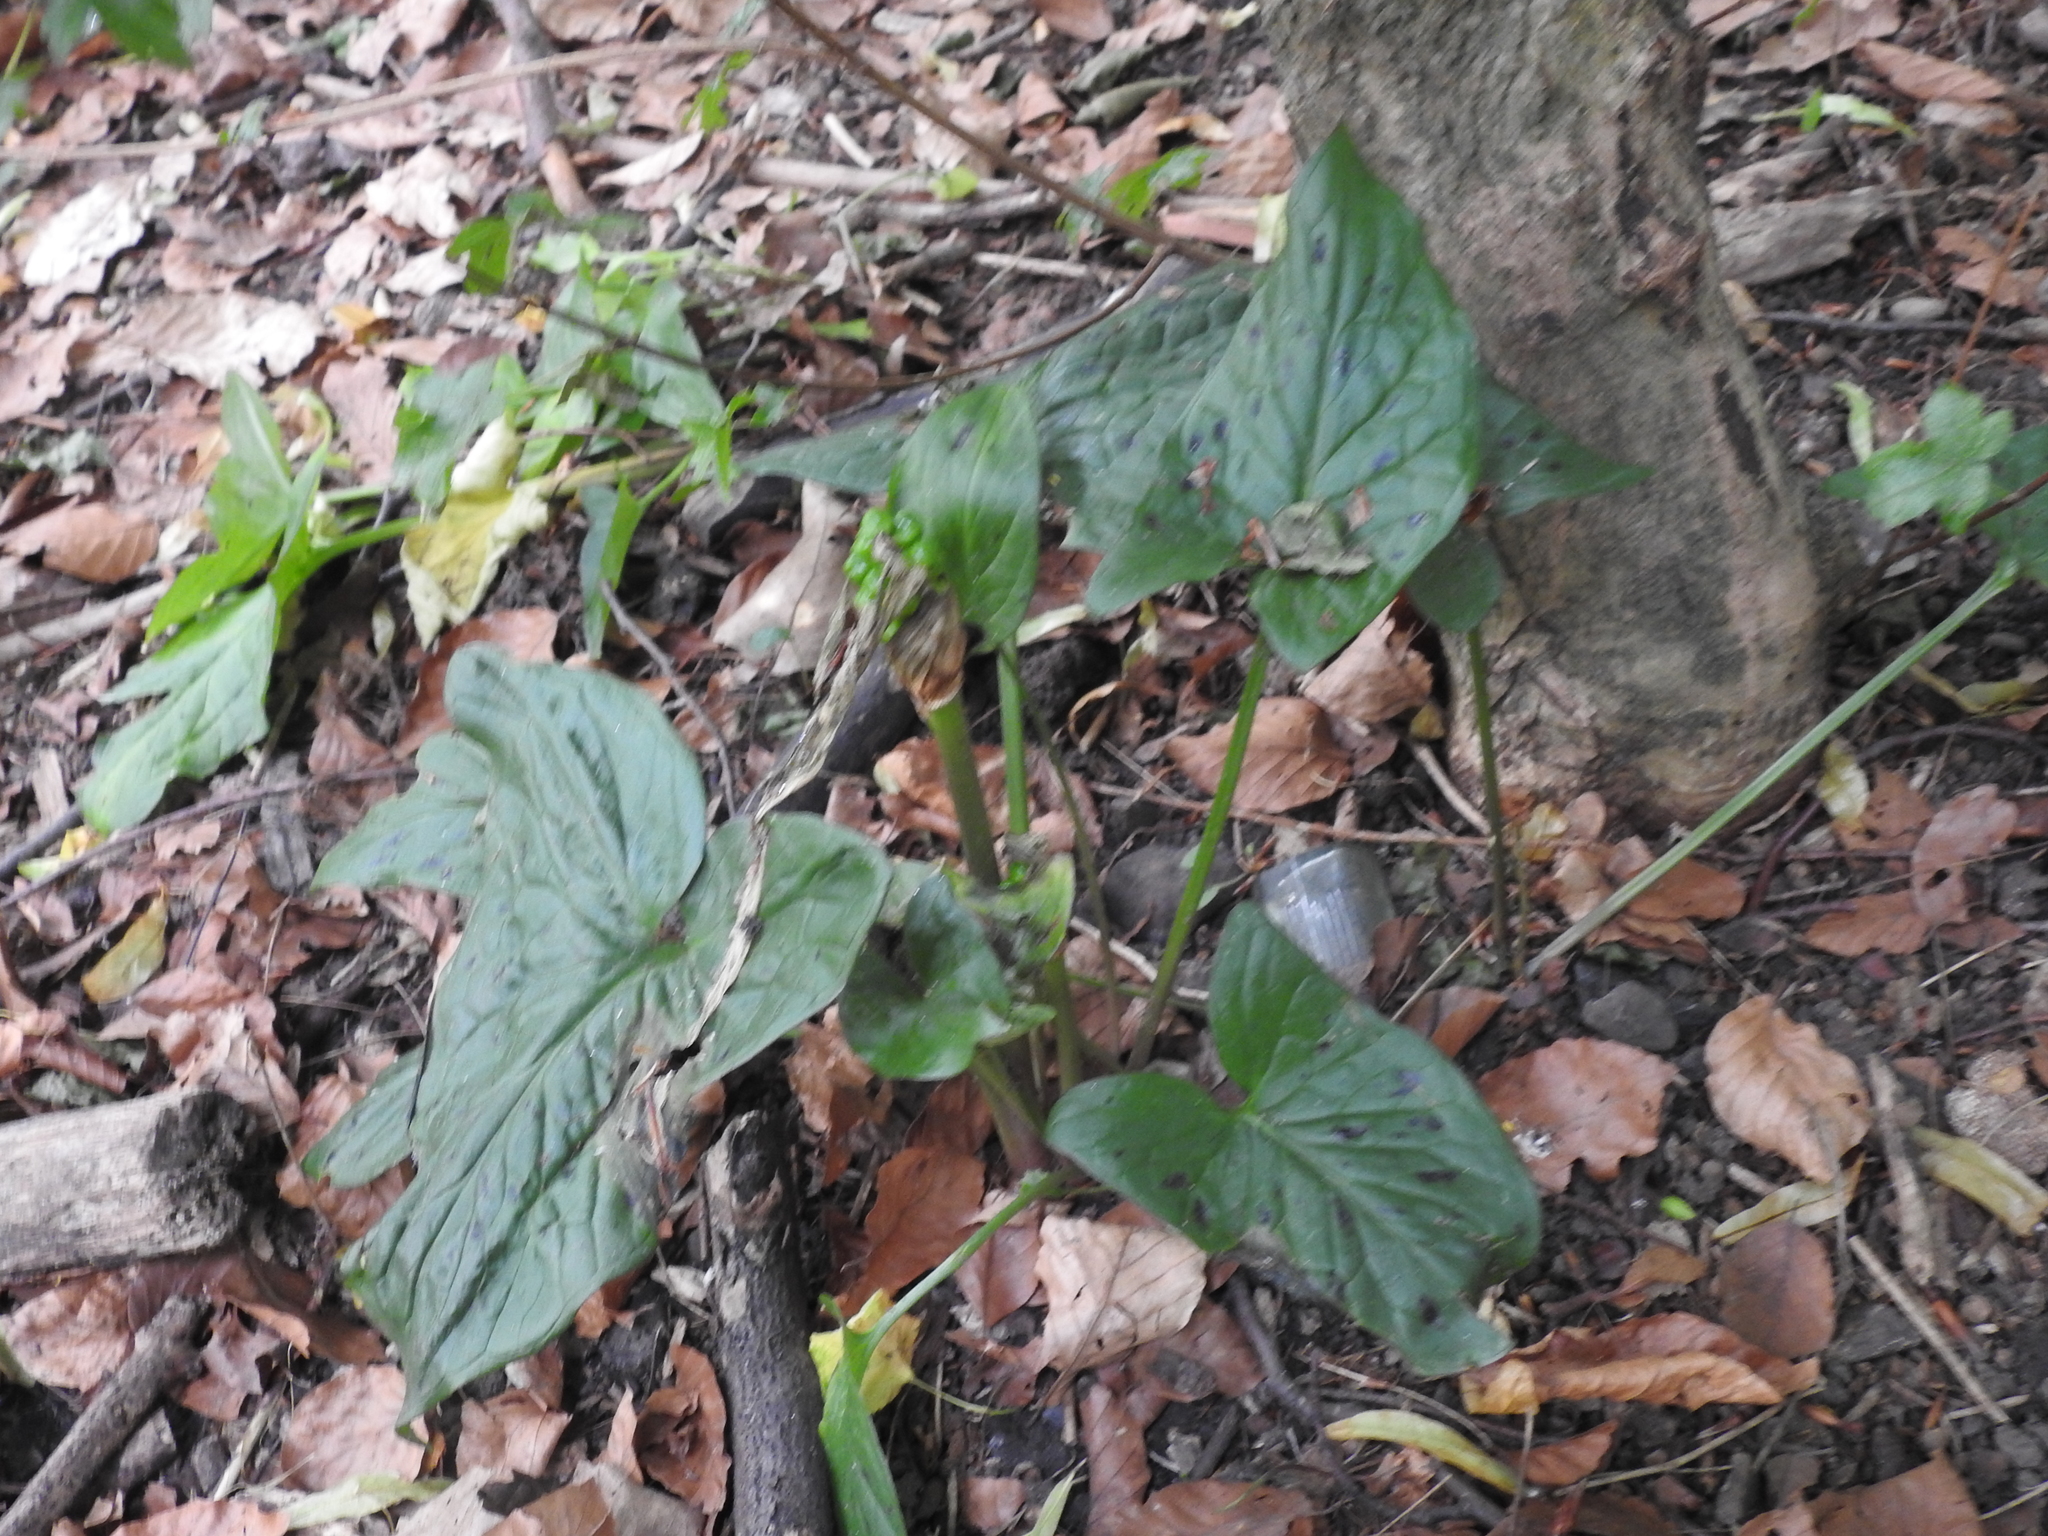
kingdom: Plantae
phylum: Tracheophyta
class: Liliopsida
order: Alismatales
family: Araceae
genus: Arum
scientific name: Arum maculatum
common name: Lords-and-ladies
